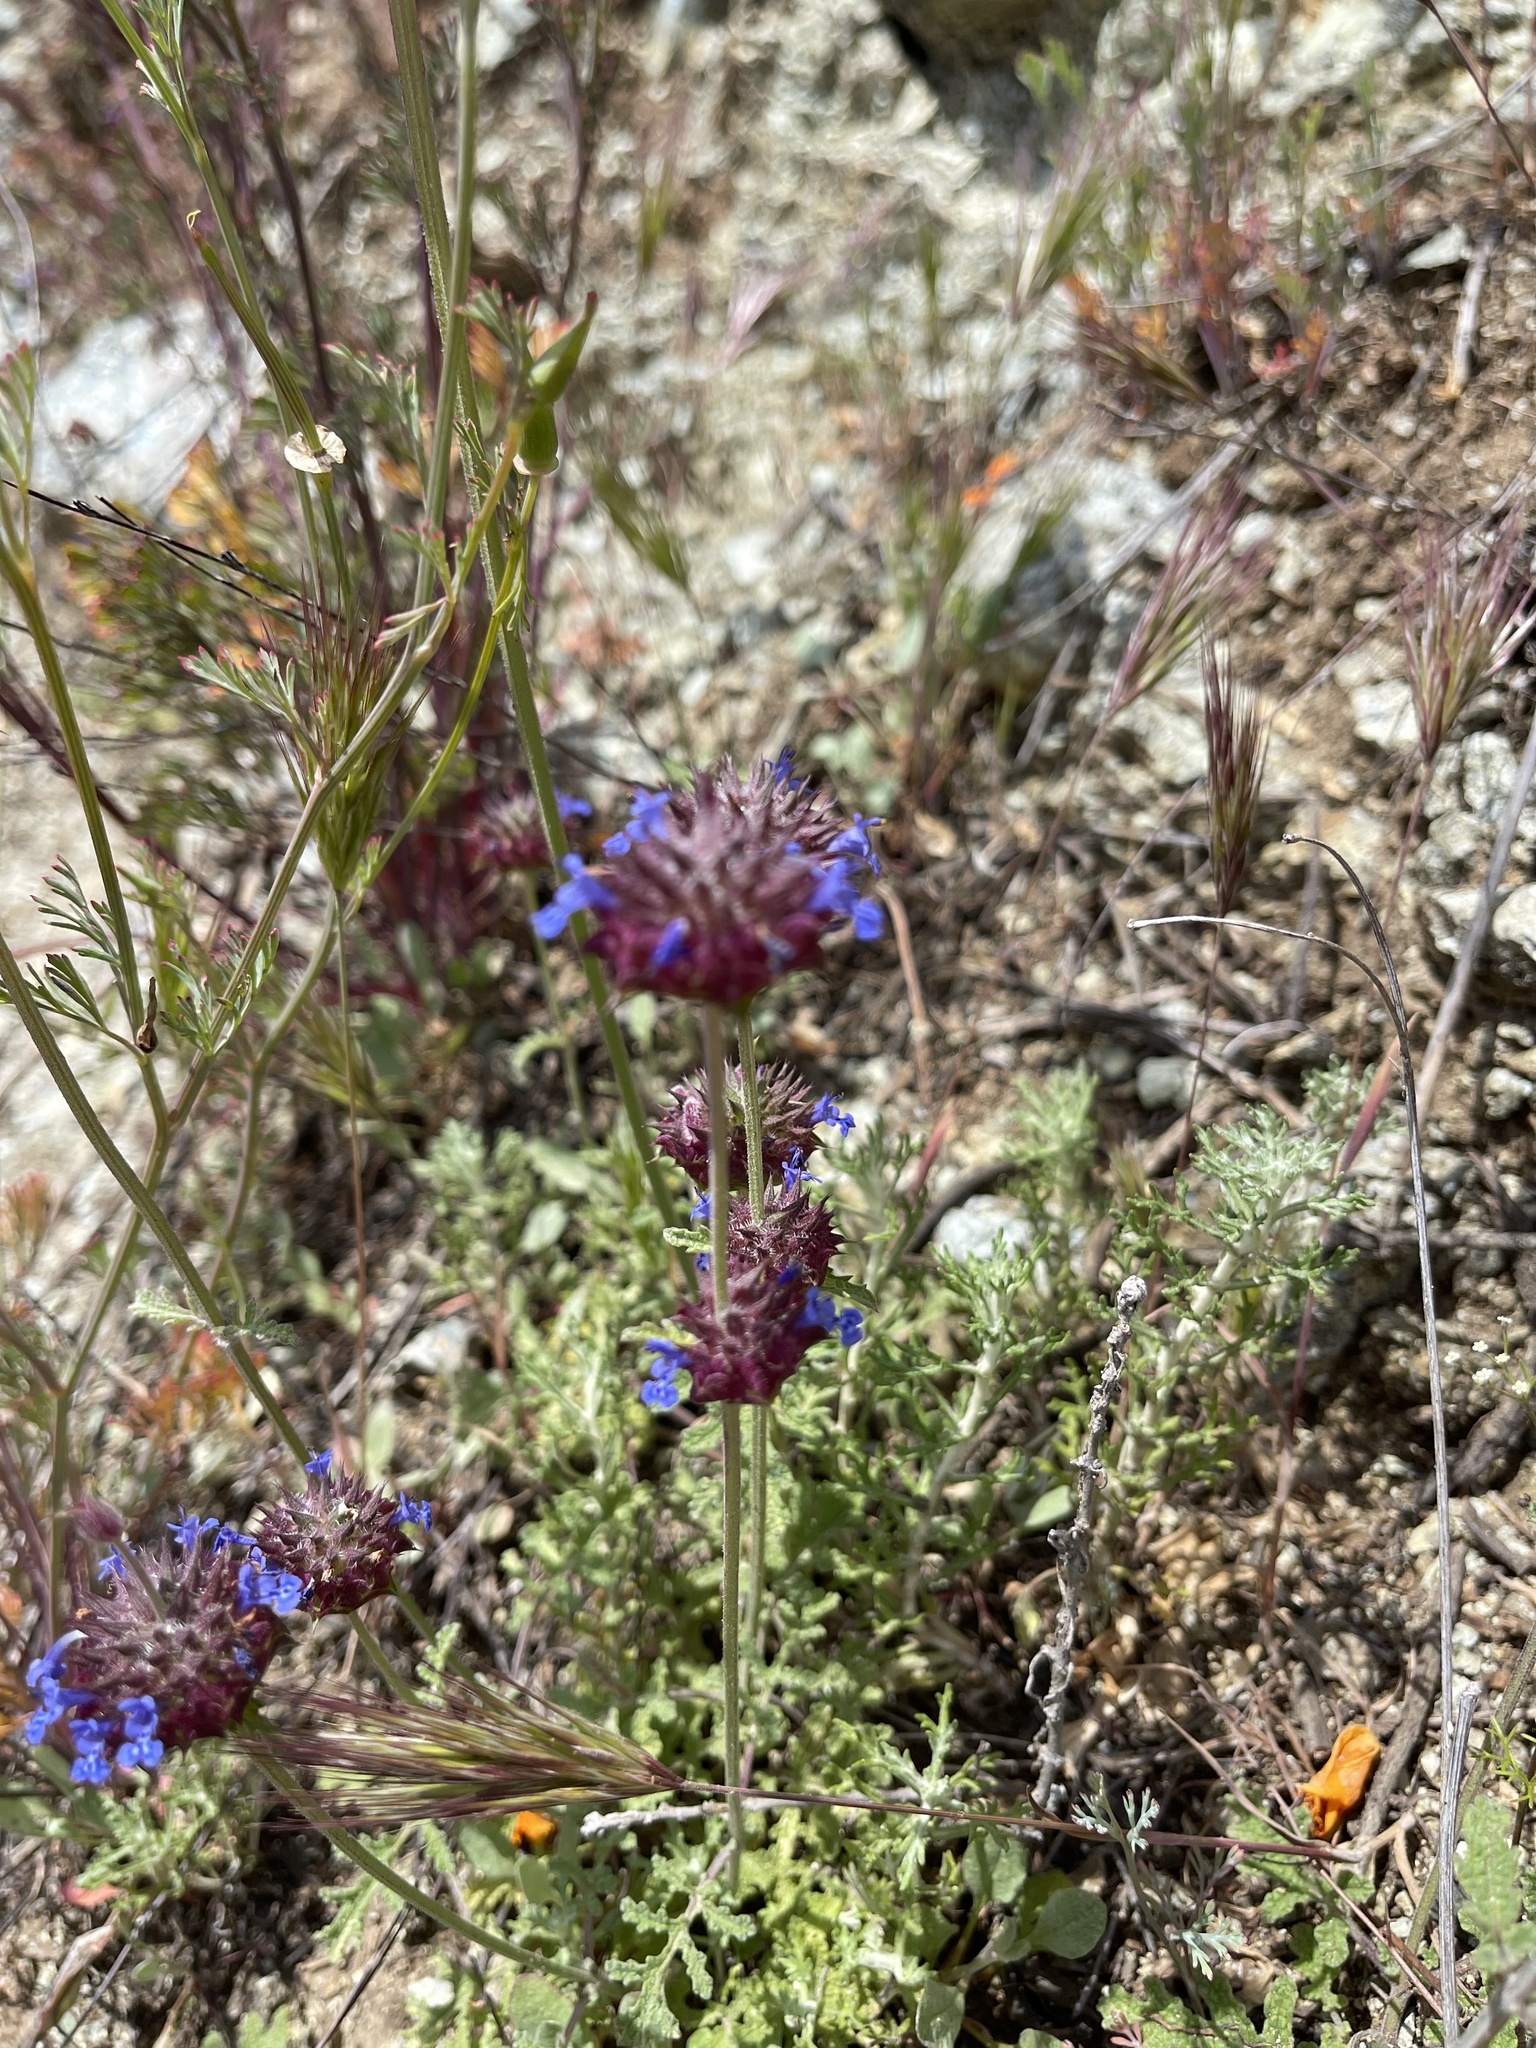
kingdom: Plantae
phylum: Tracheophyta
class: Magnoliopsida
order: Lamiales
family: Lamiaceae
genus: Salvia
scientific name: Salvia columbariae
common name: Chia
